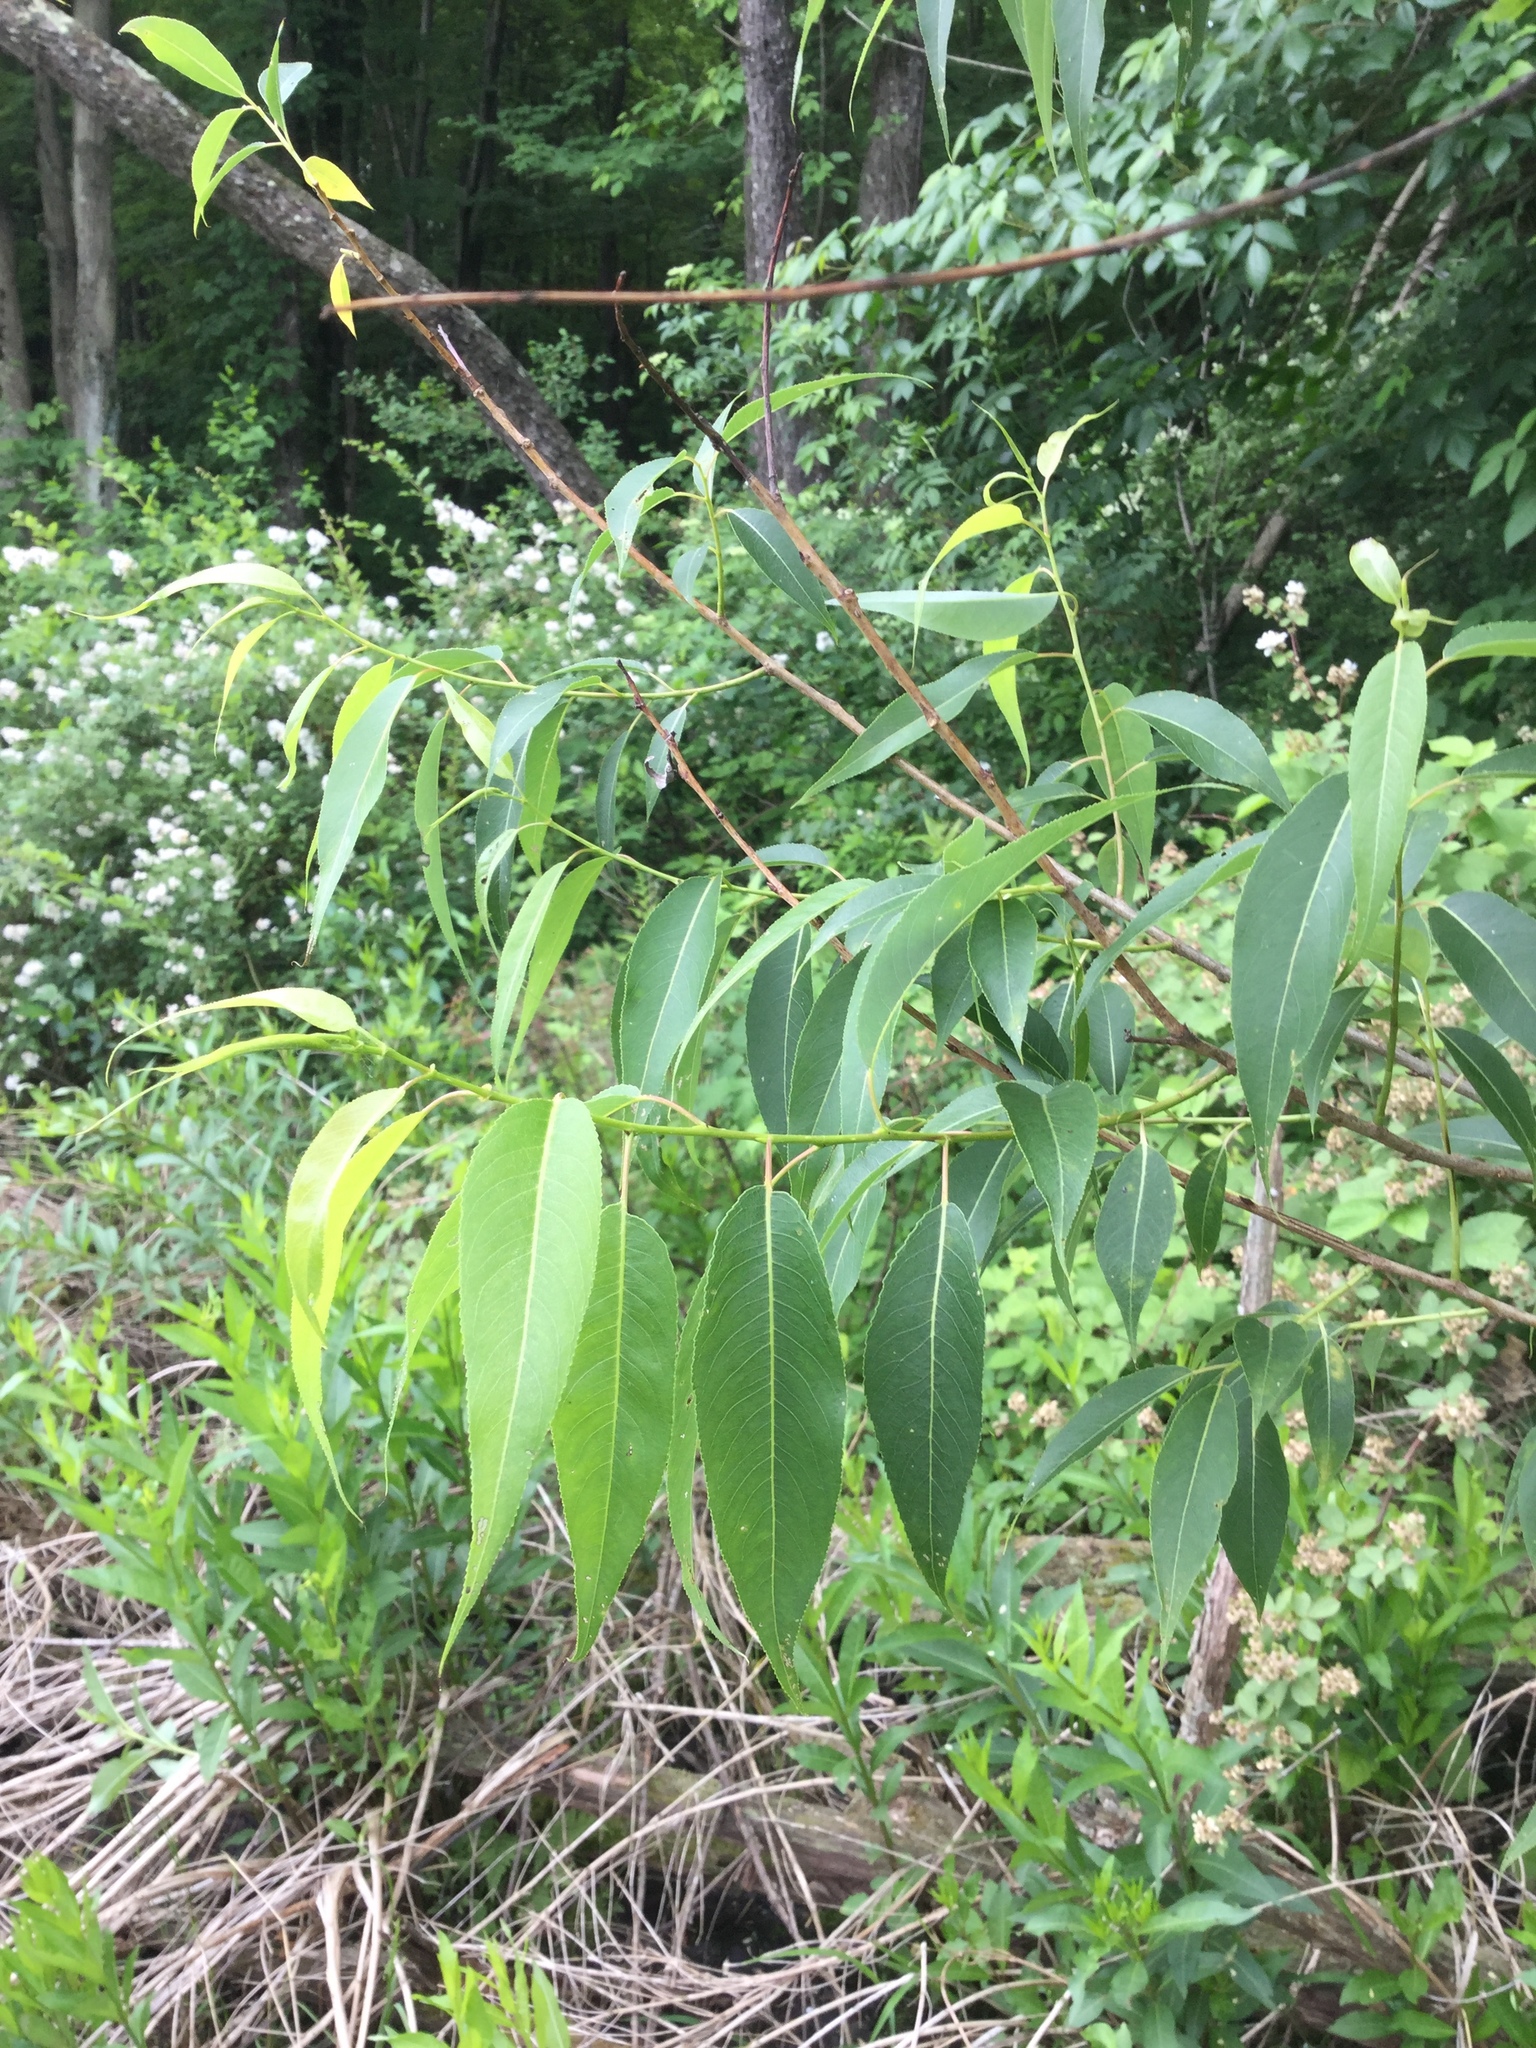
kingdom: Plantae
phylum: Tracheophyta
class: Magnoliopsida
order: Malpighiales
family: Salicaceae
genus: Salix
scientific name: Salix amygdaloides
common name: Peach leaf willow
